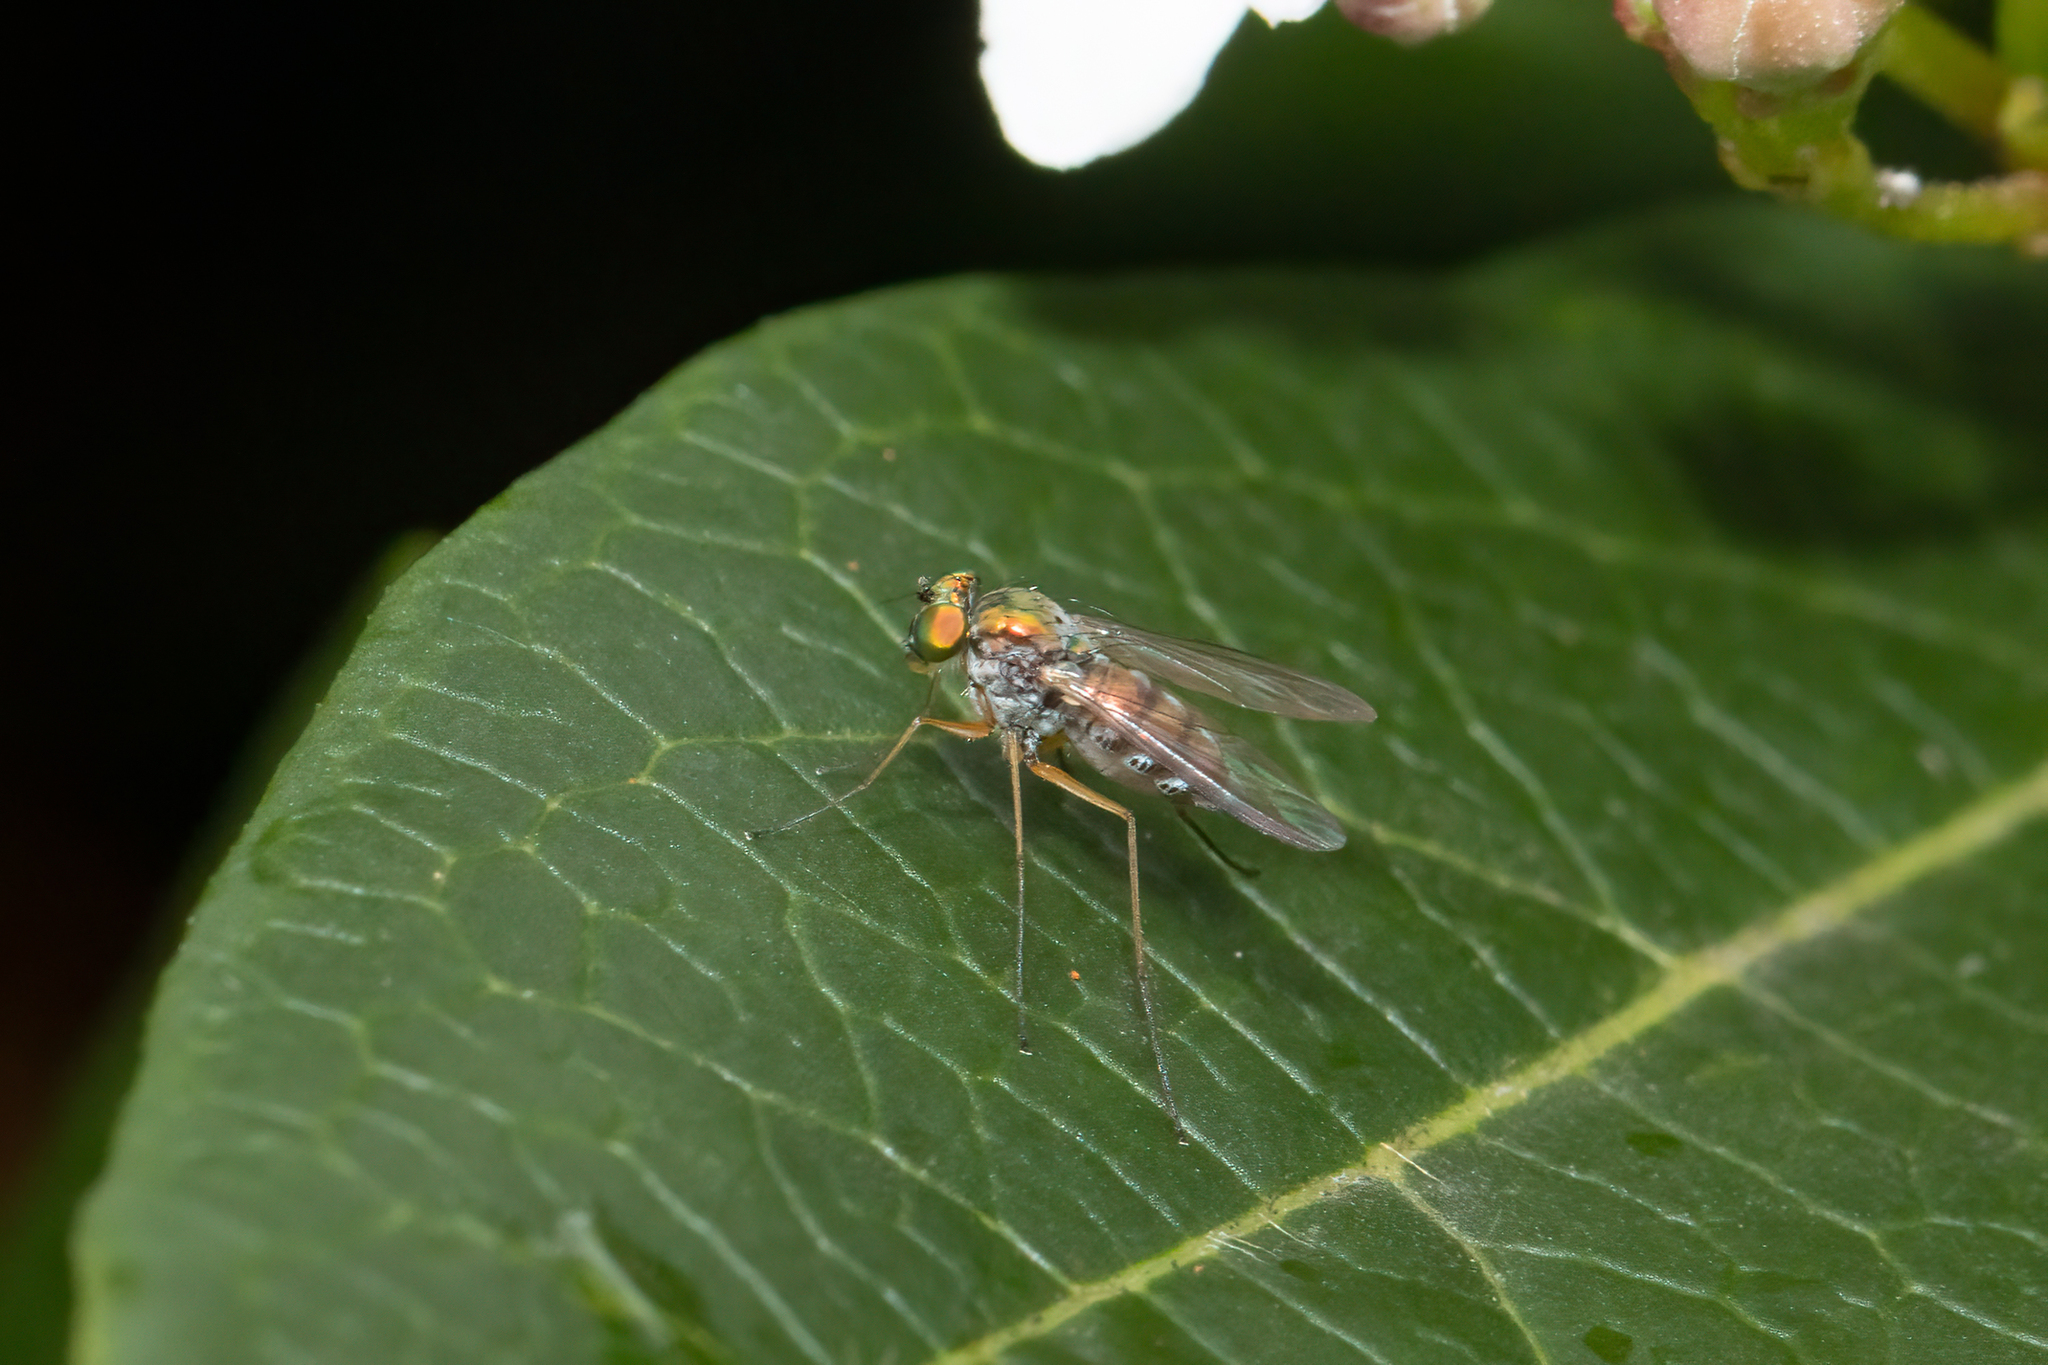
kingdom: Animalia
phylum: Arthropoda
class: Insecta
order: Diptera
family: Dolichopodidae
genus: Parentia
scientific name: Parentia dispar
